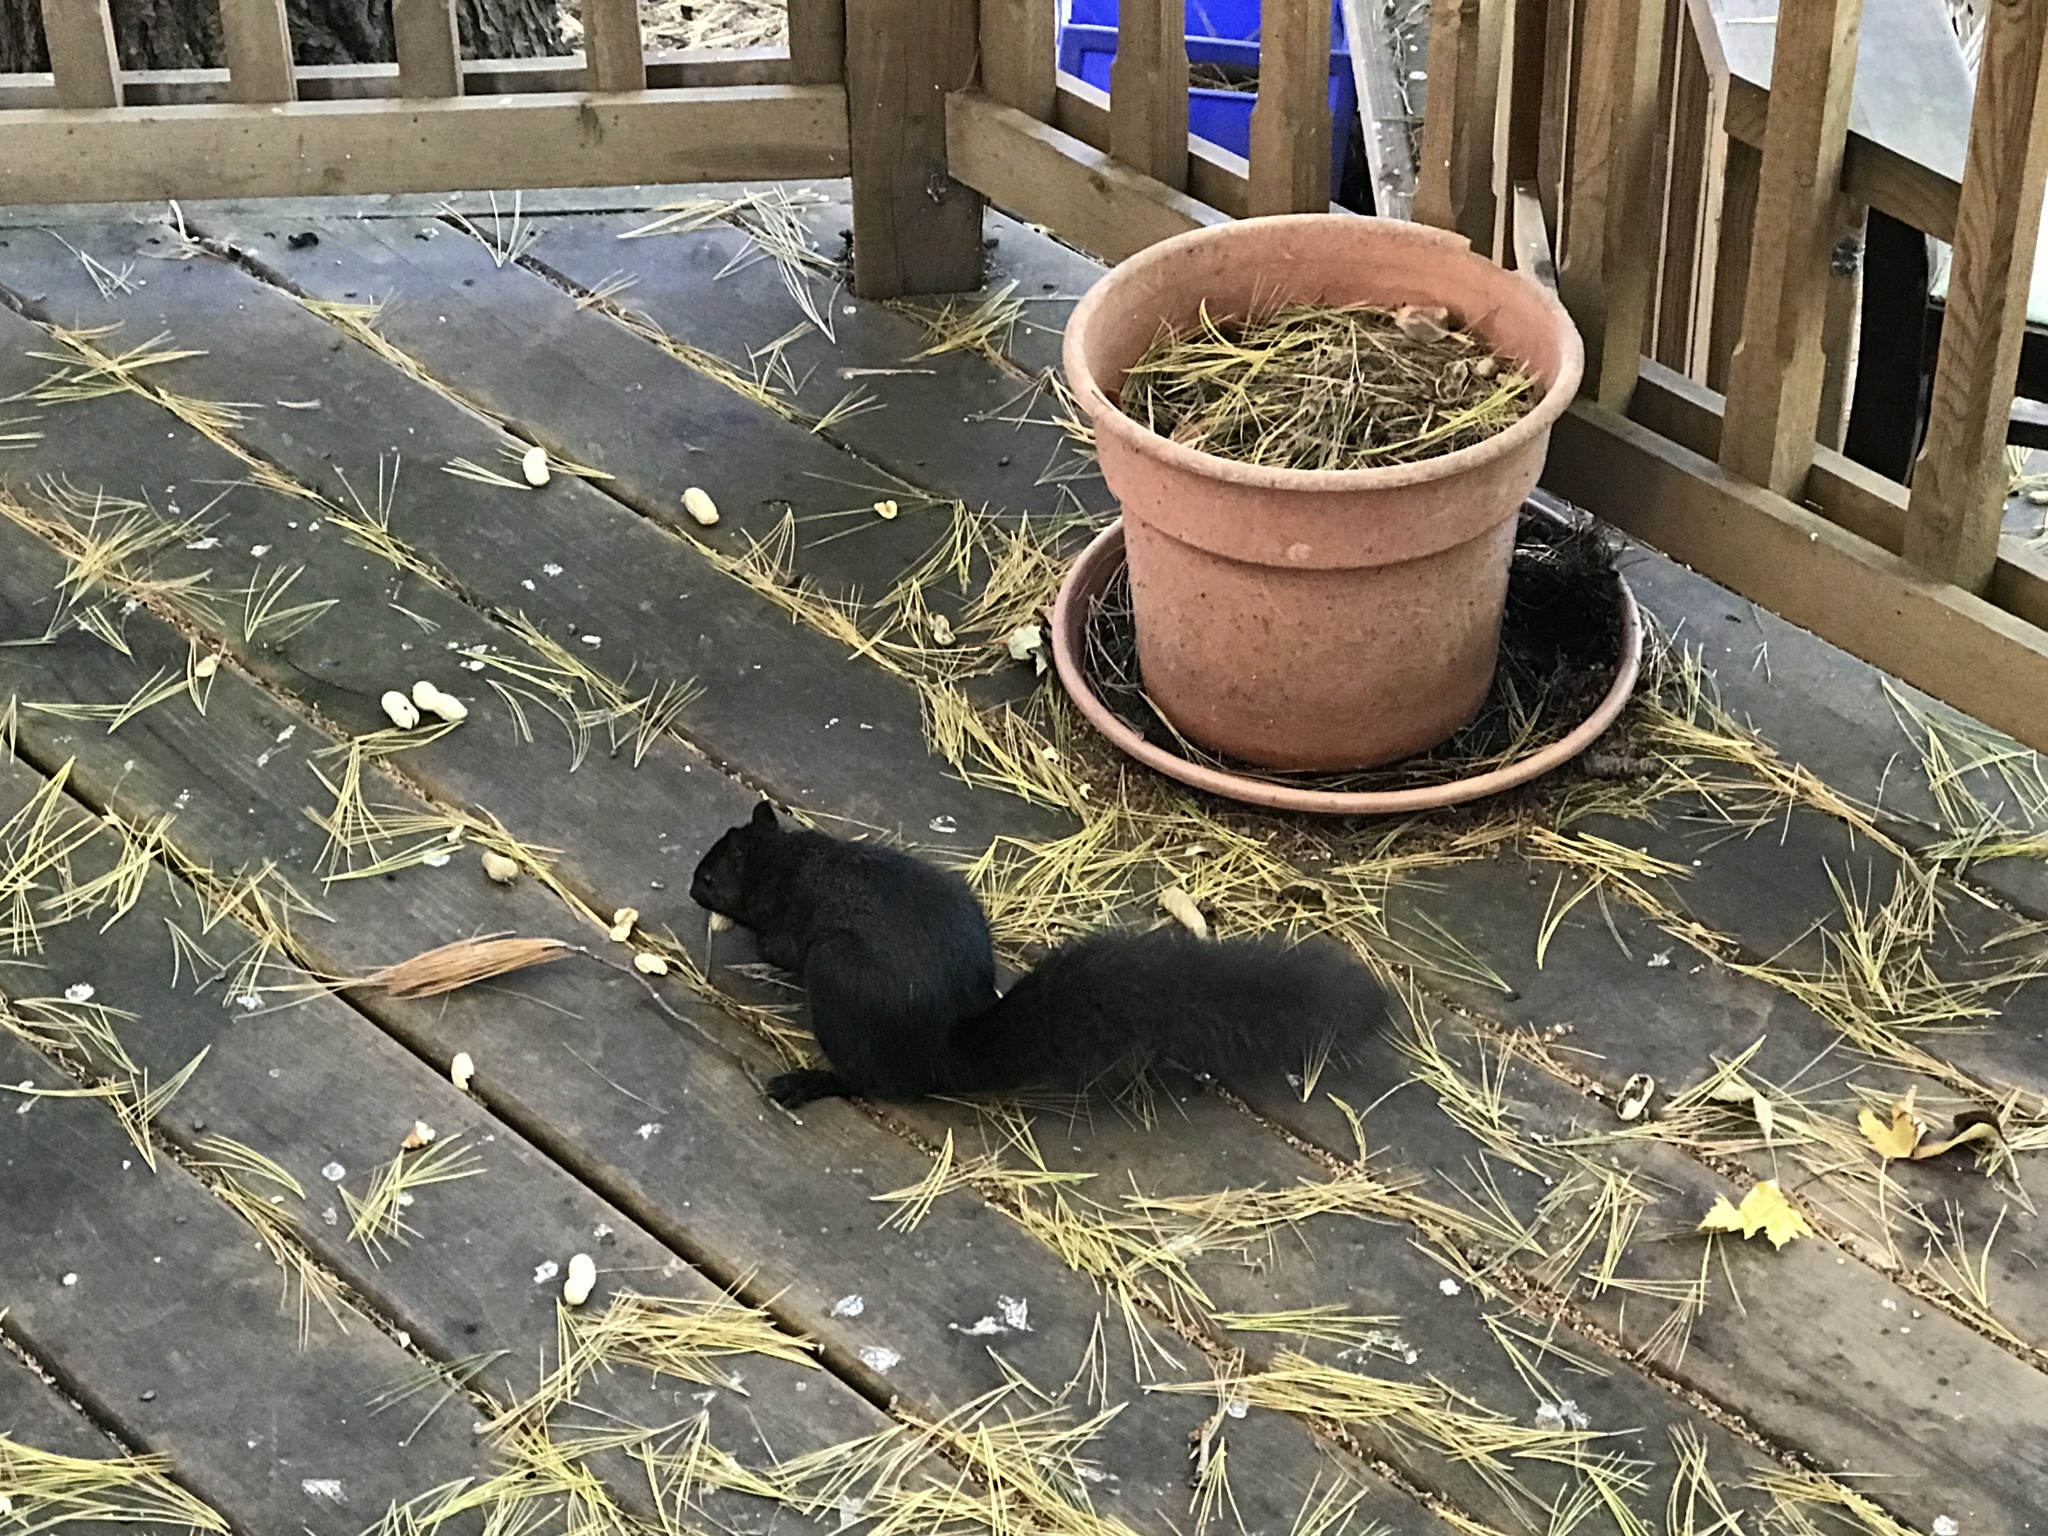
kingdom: Animalia
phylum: Chordata
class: Mammalia
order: Rodentia
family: Sciuridae
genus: Sciurus
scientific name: Sciurus carolinensis
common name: Eastern gray squirrel
